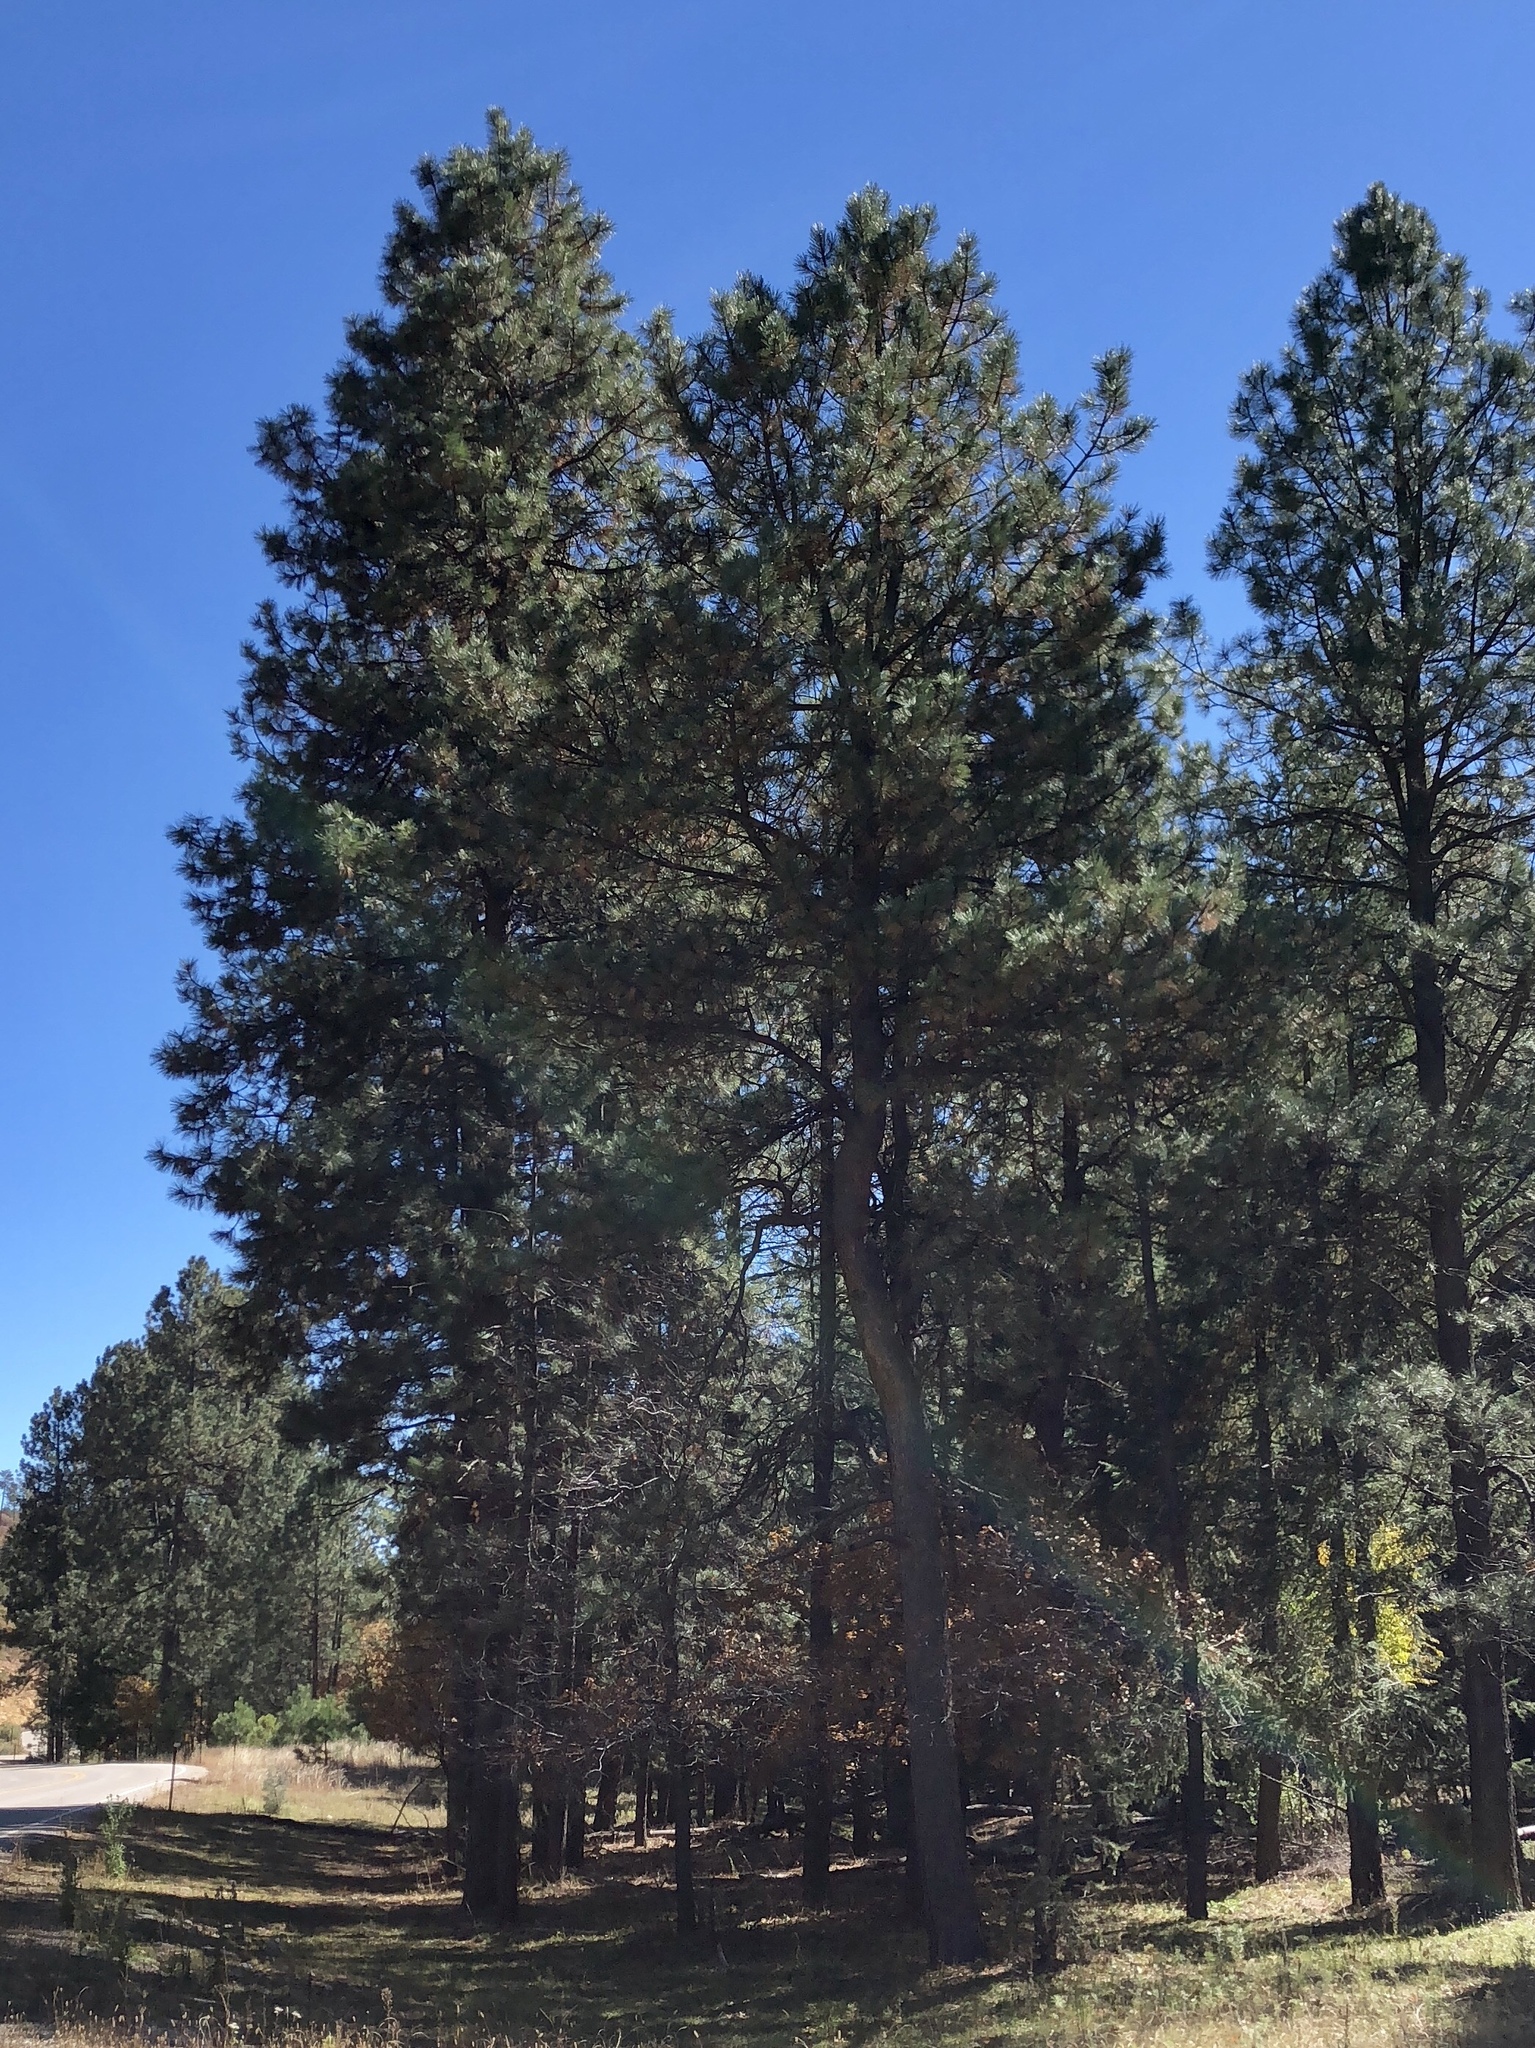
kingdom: Plantae
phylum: Tracheophyta
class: Pinopsida
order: Pinales
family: Pinaceae
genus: Pinus
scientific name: Pinus ponderosa
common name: Western yellow-pine
